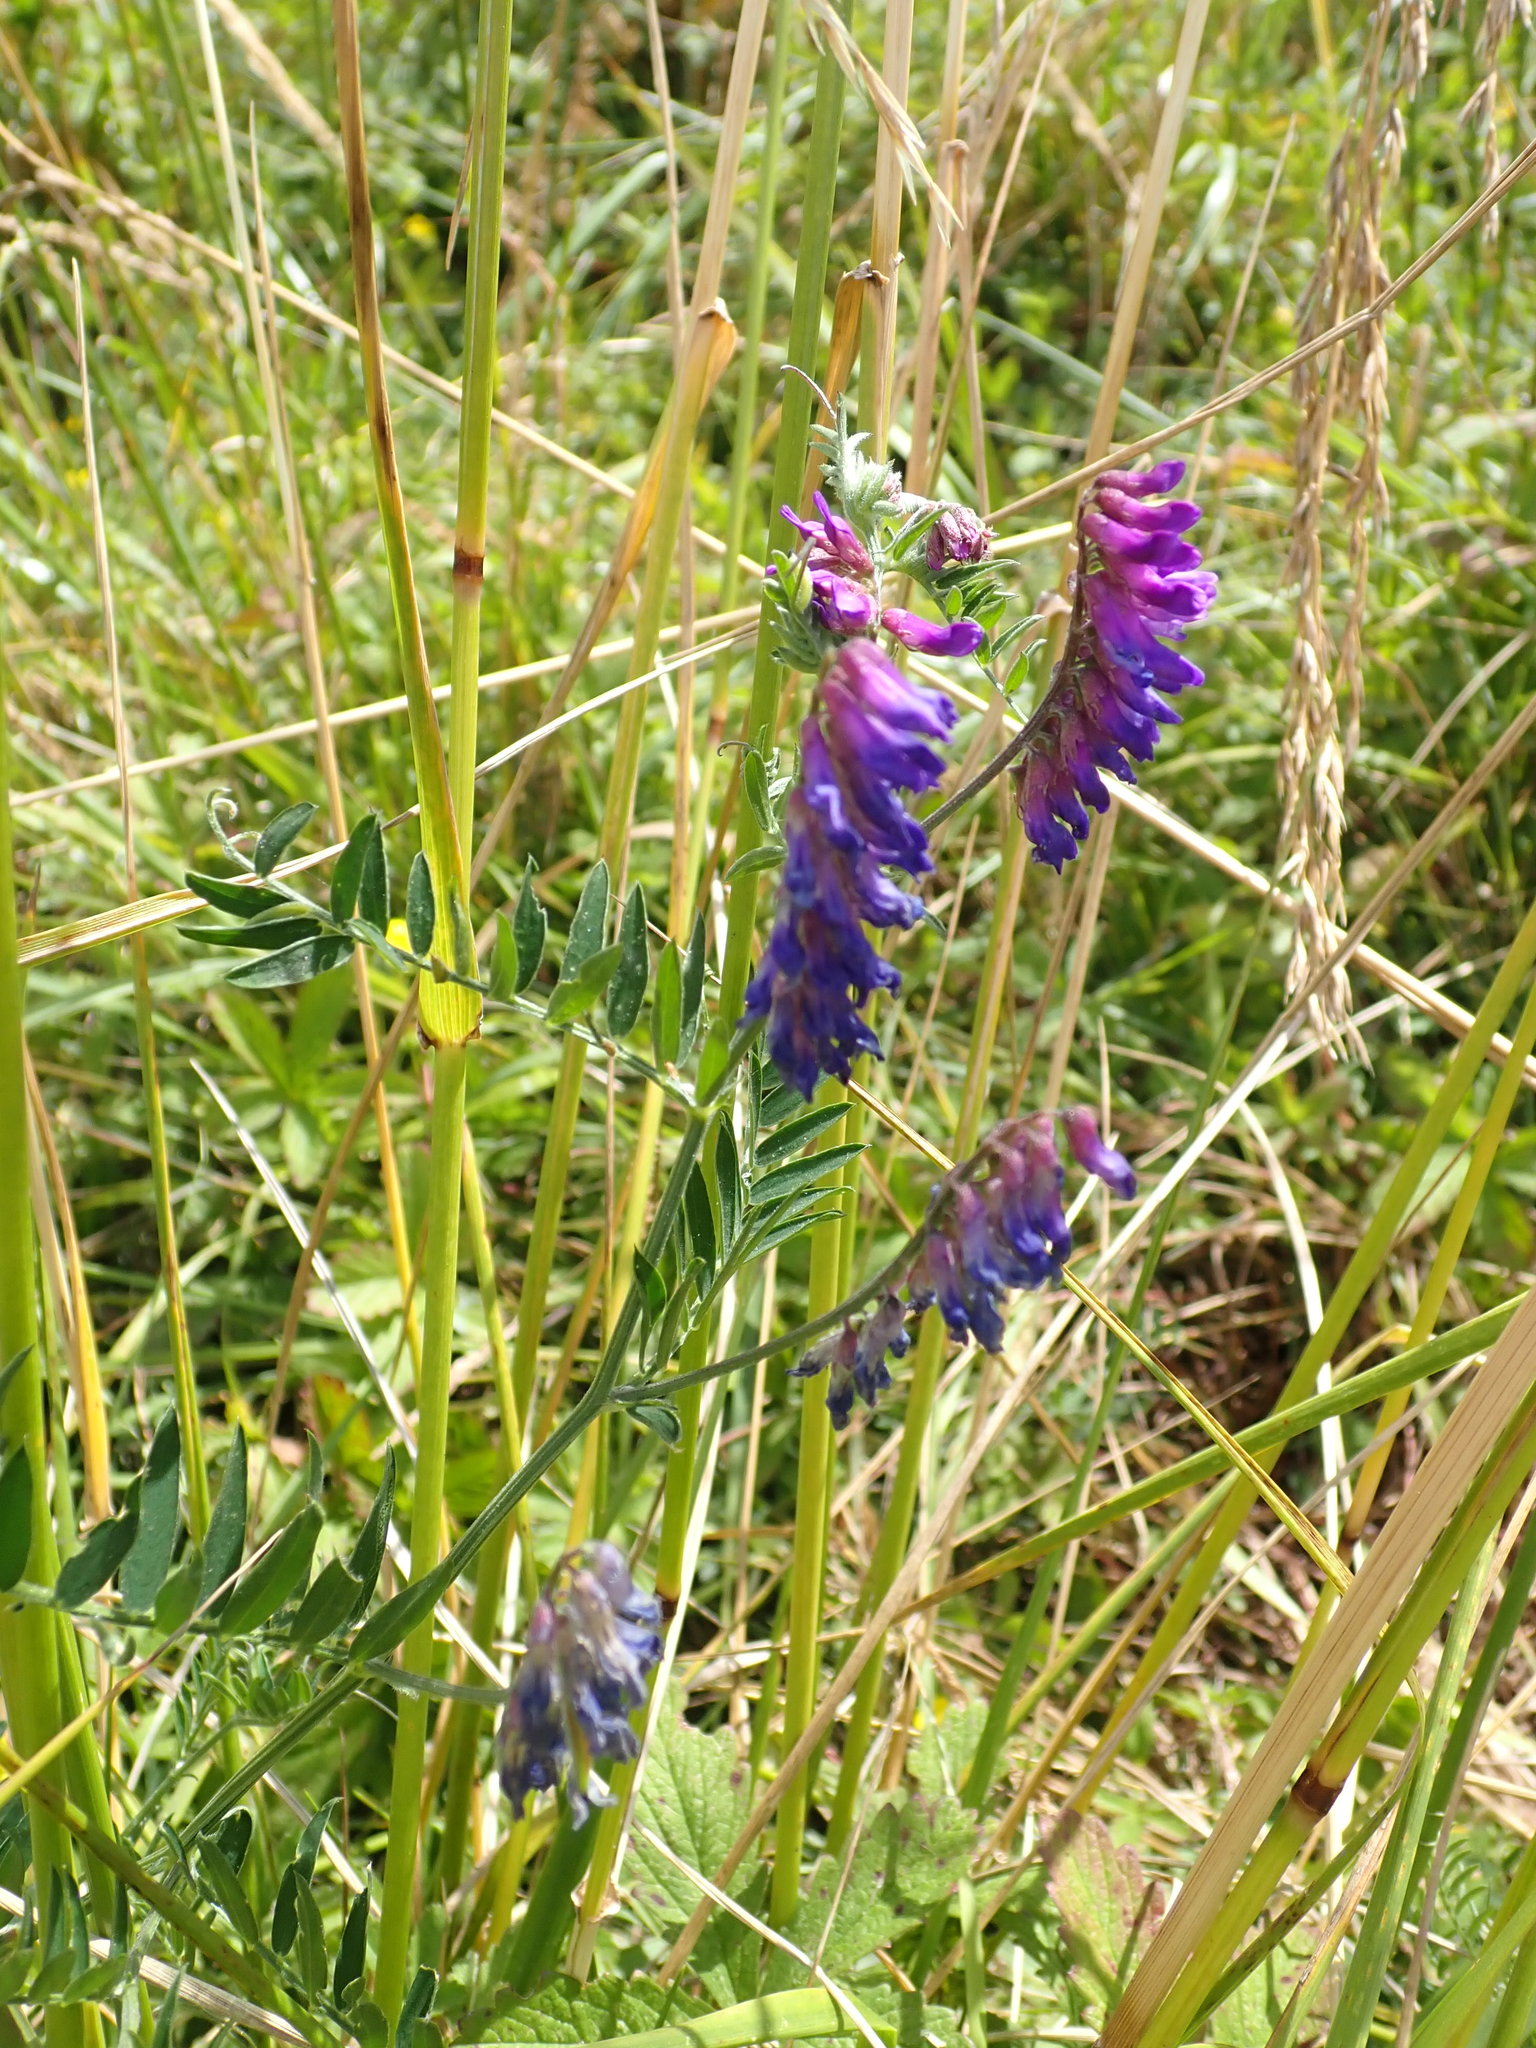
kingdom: Plantae
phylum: Tracheophyta
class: Magnoliopsida
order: Fabales
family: Fabaceae
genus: Vicia
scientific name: Vicia cracca
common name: Bird vetch
